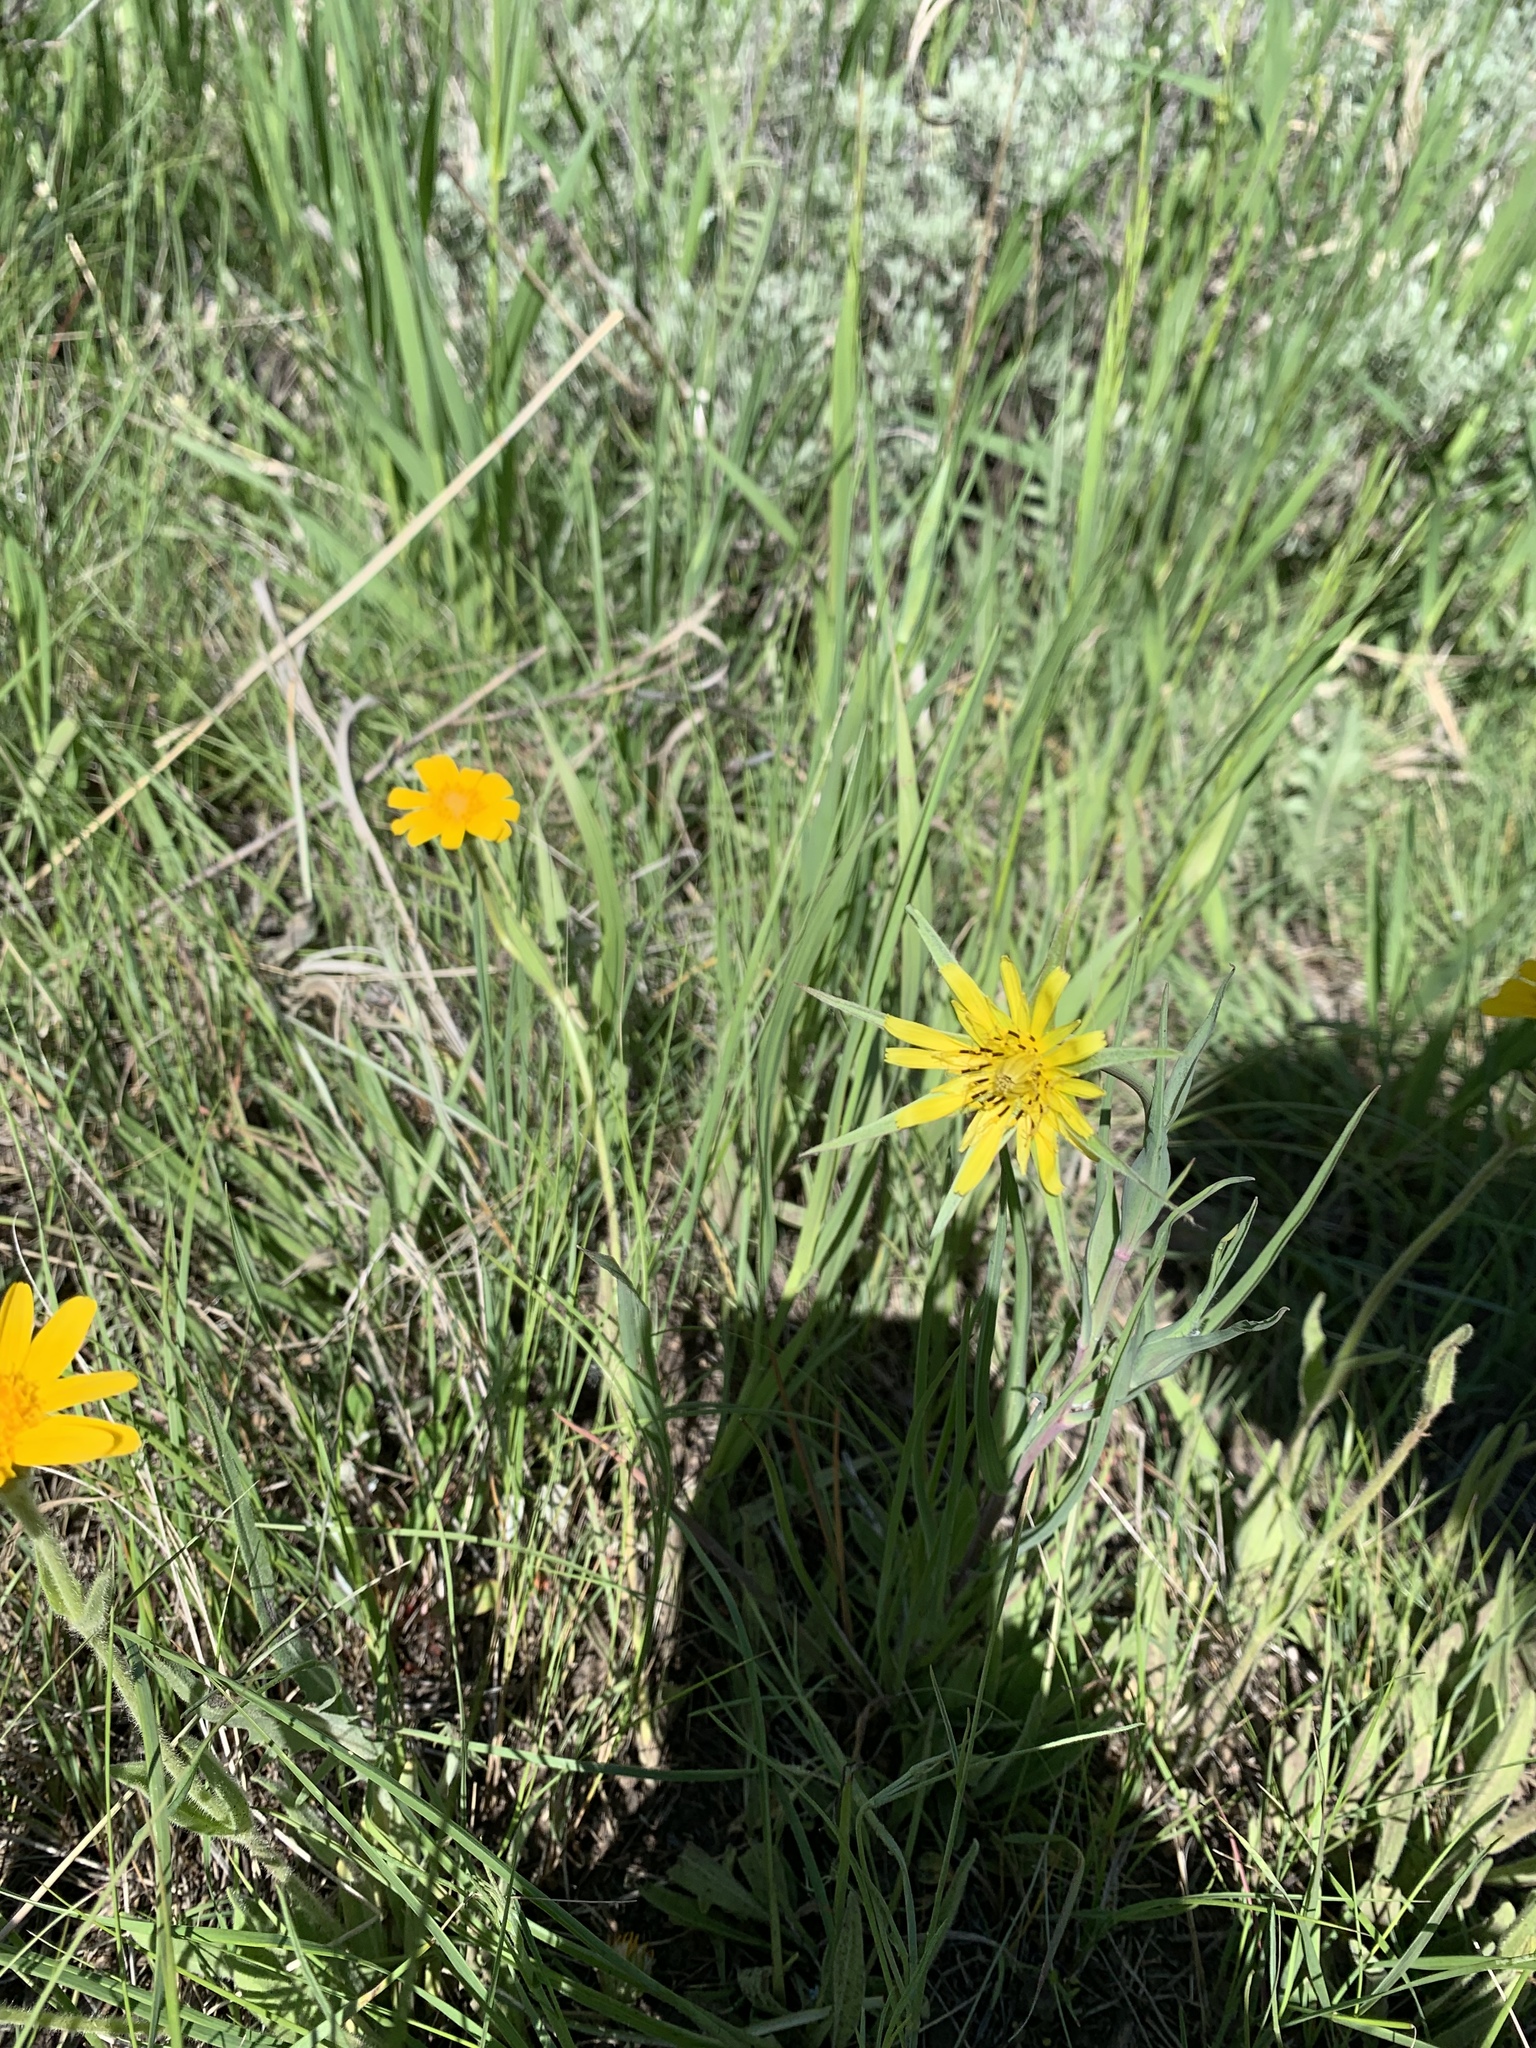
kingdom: Plantae
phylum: Tracheophyta
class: Magnoliopsida
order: Asterales
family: Asteraceae
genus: Tragopogon
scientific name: Tragopogon dubius
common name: Yellow salsify
